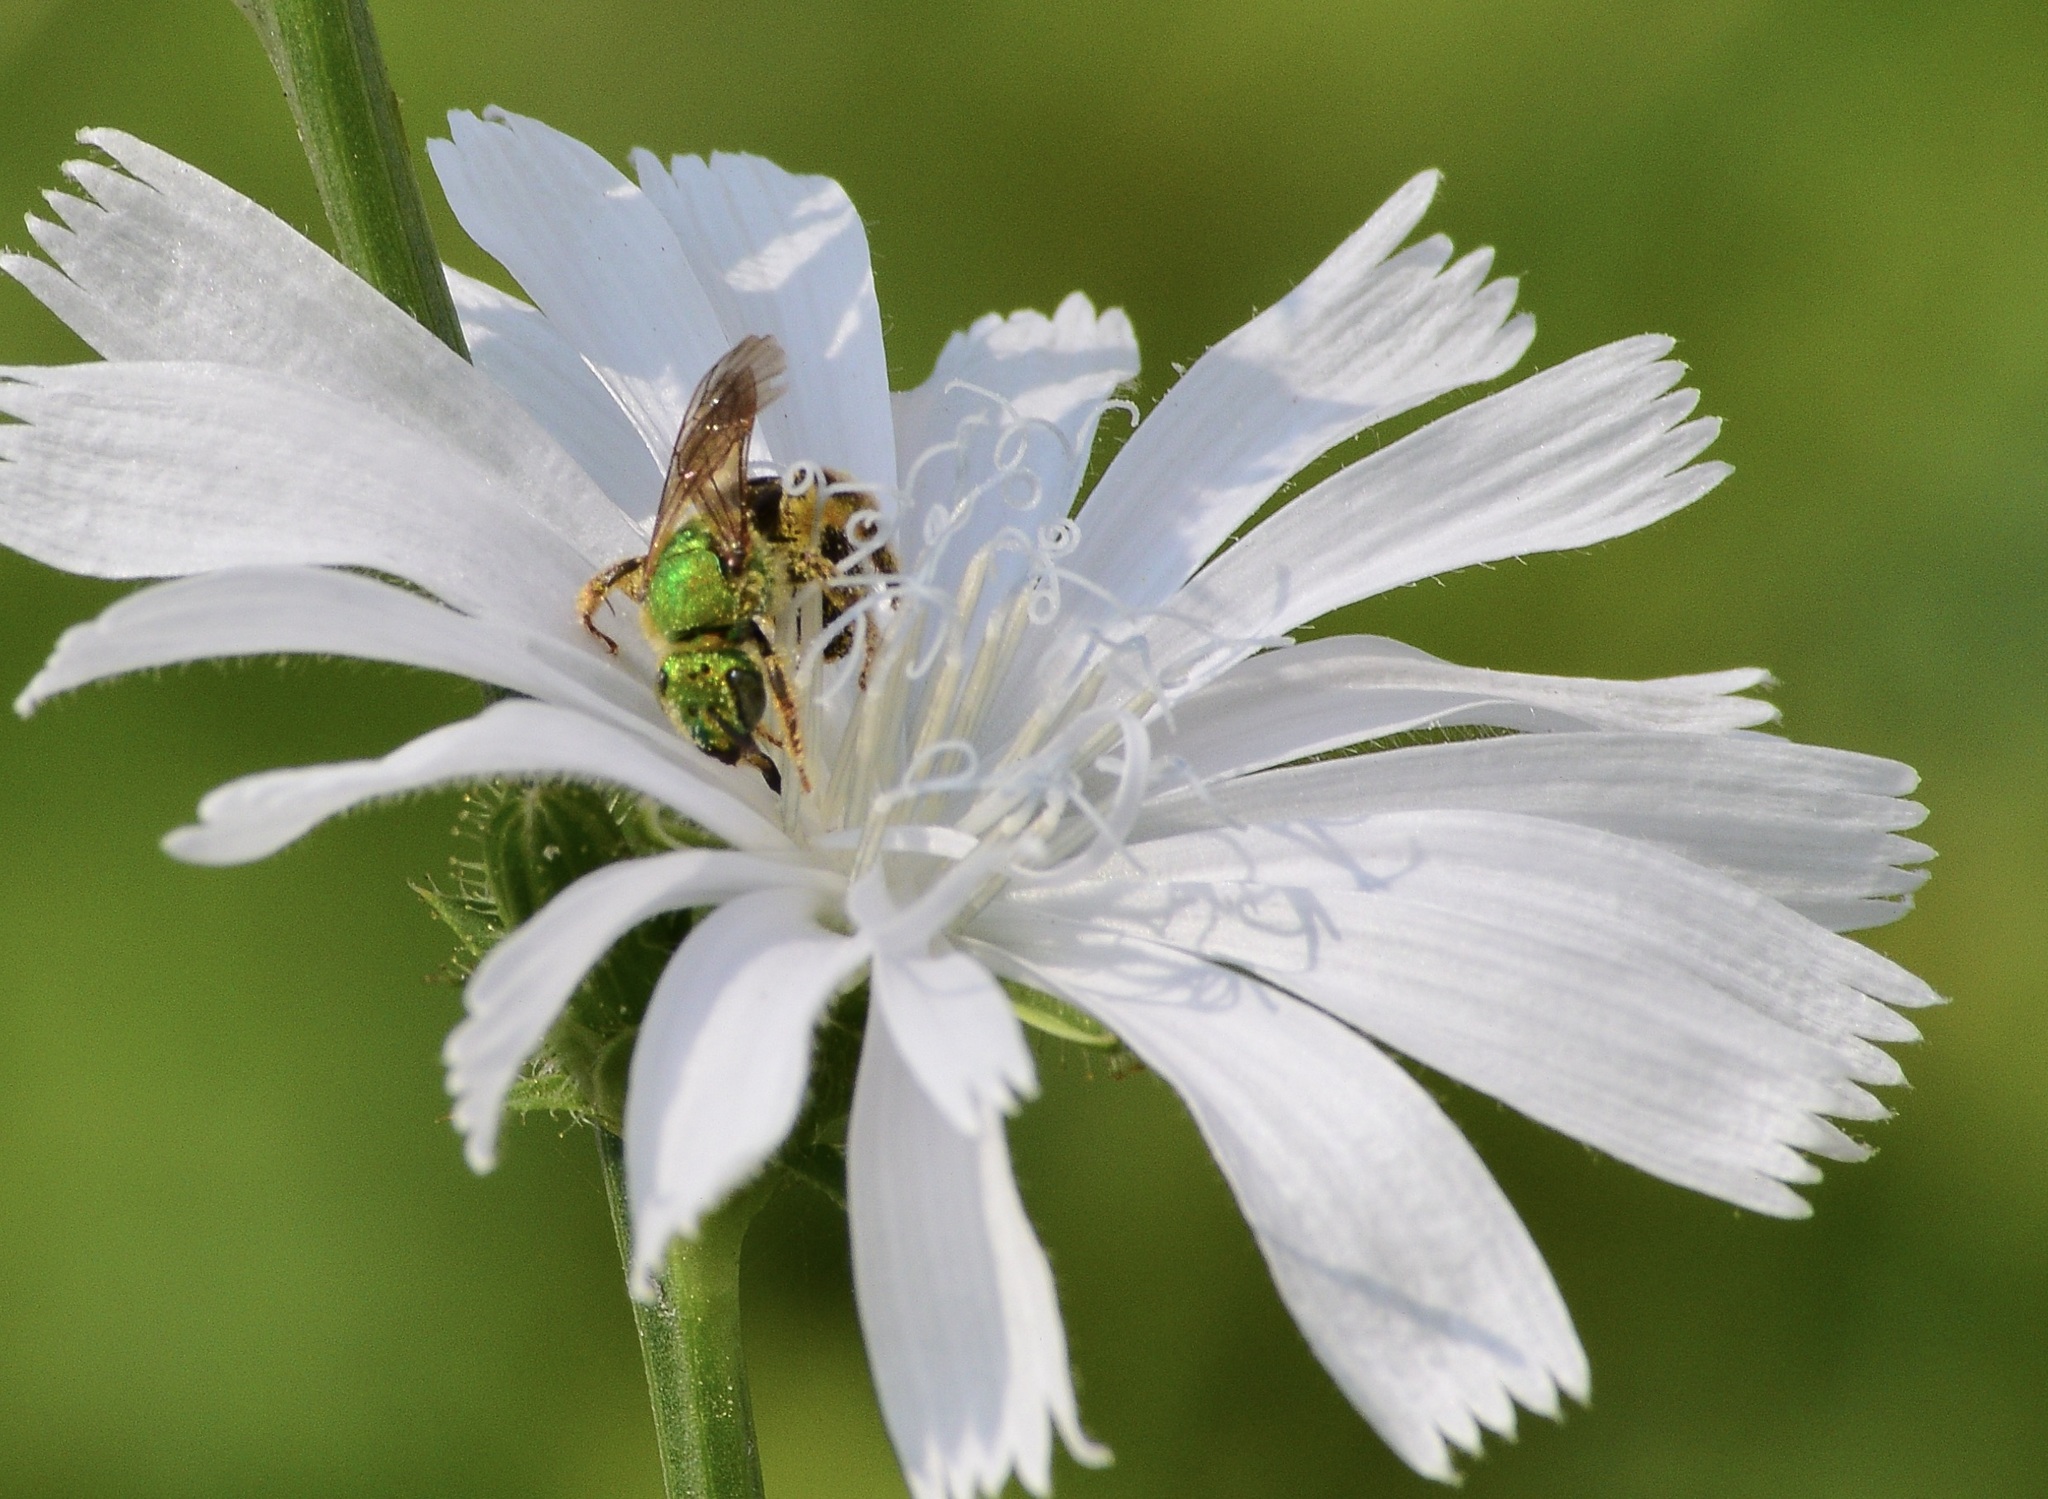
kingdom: Animalia
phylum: Arthropoda
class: Insecta
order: Hymenoptera
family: Halictidae
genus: Agapostemon
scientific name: Agapostemon virescens
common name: Bicolored striped sweat bee
